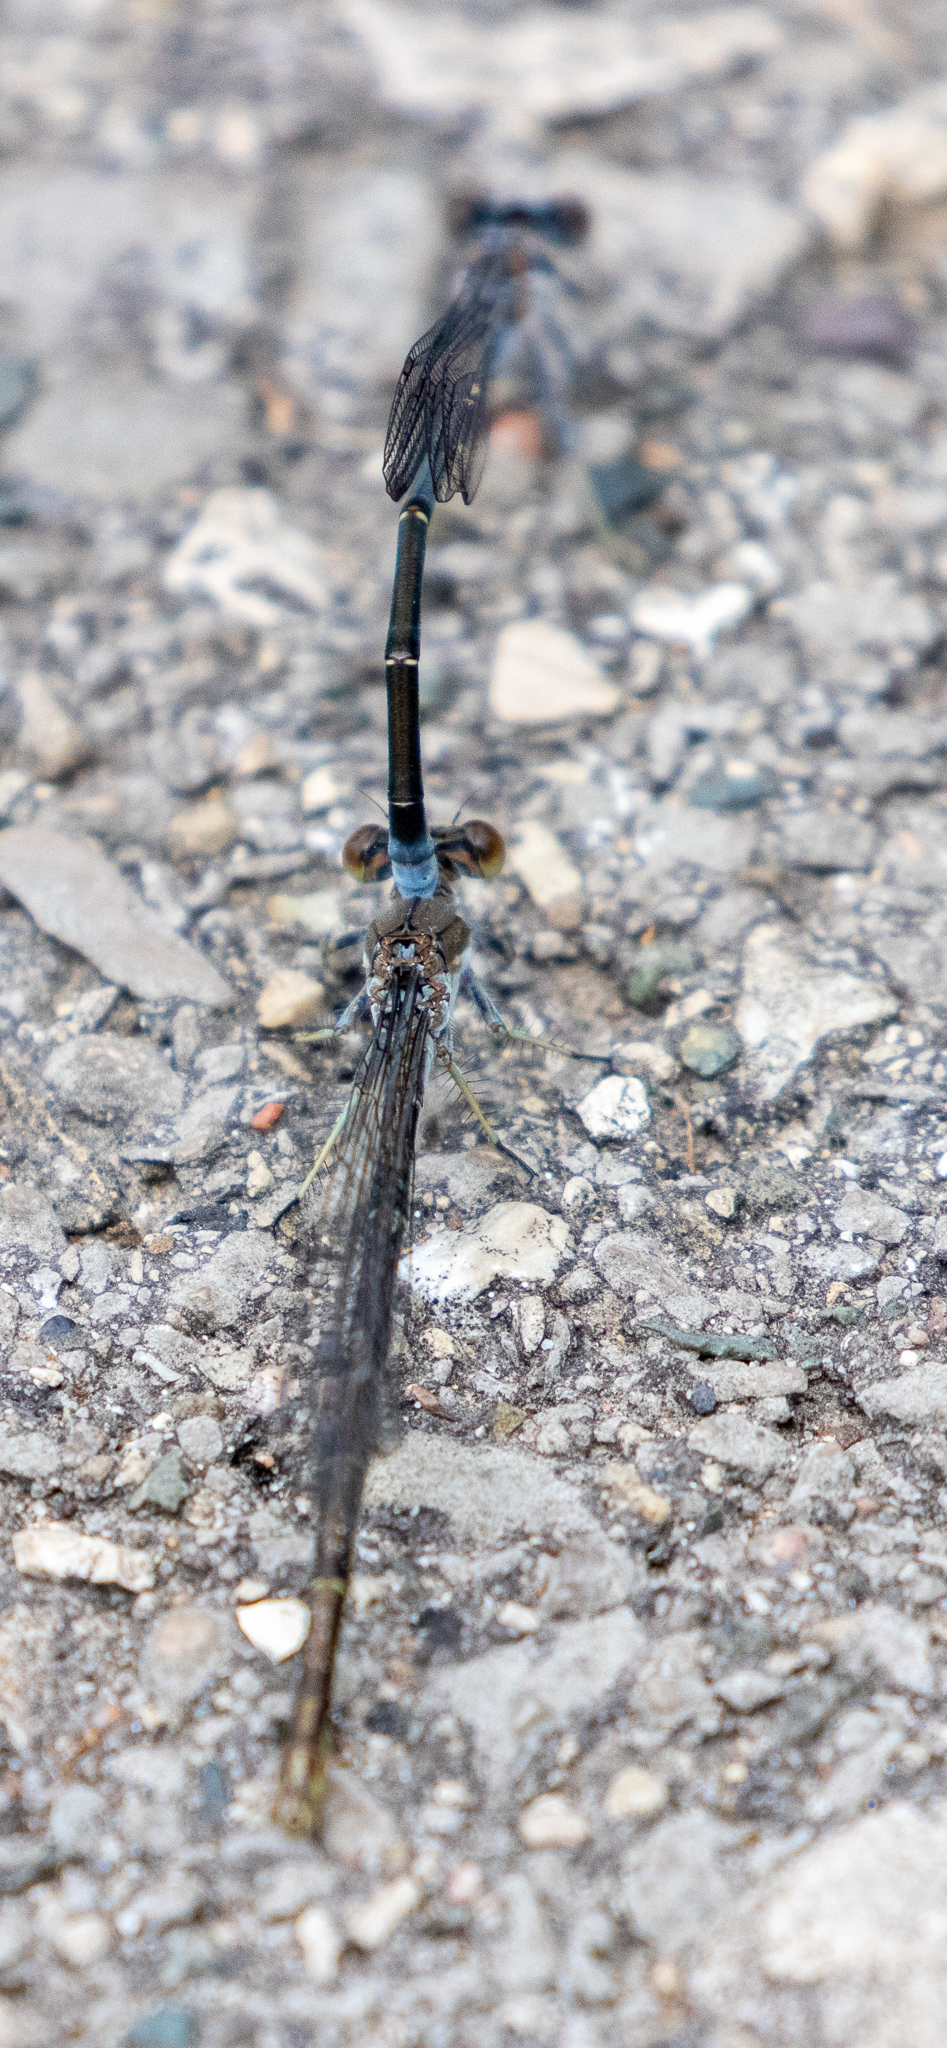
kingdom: Animalia
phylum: Arthropoda
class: Insecta
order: Odonata
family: Coenagrionidae
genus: Argia
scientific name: Argia moesta
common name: Powdered dancer
